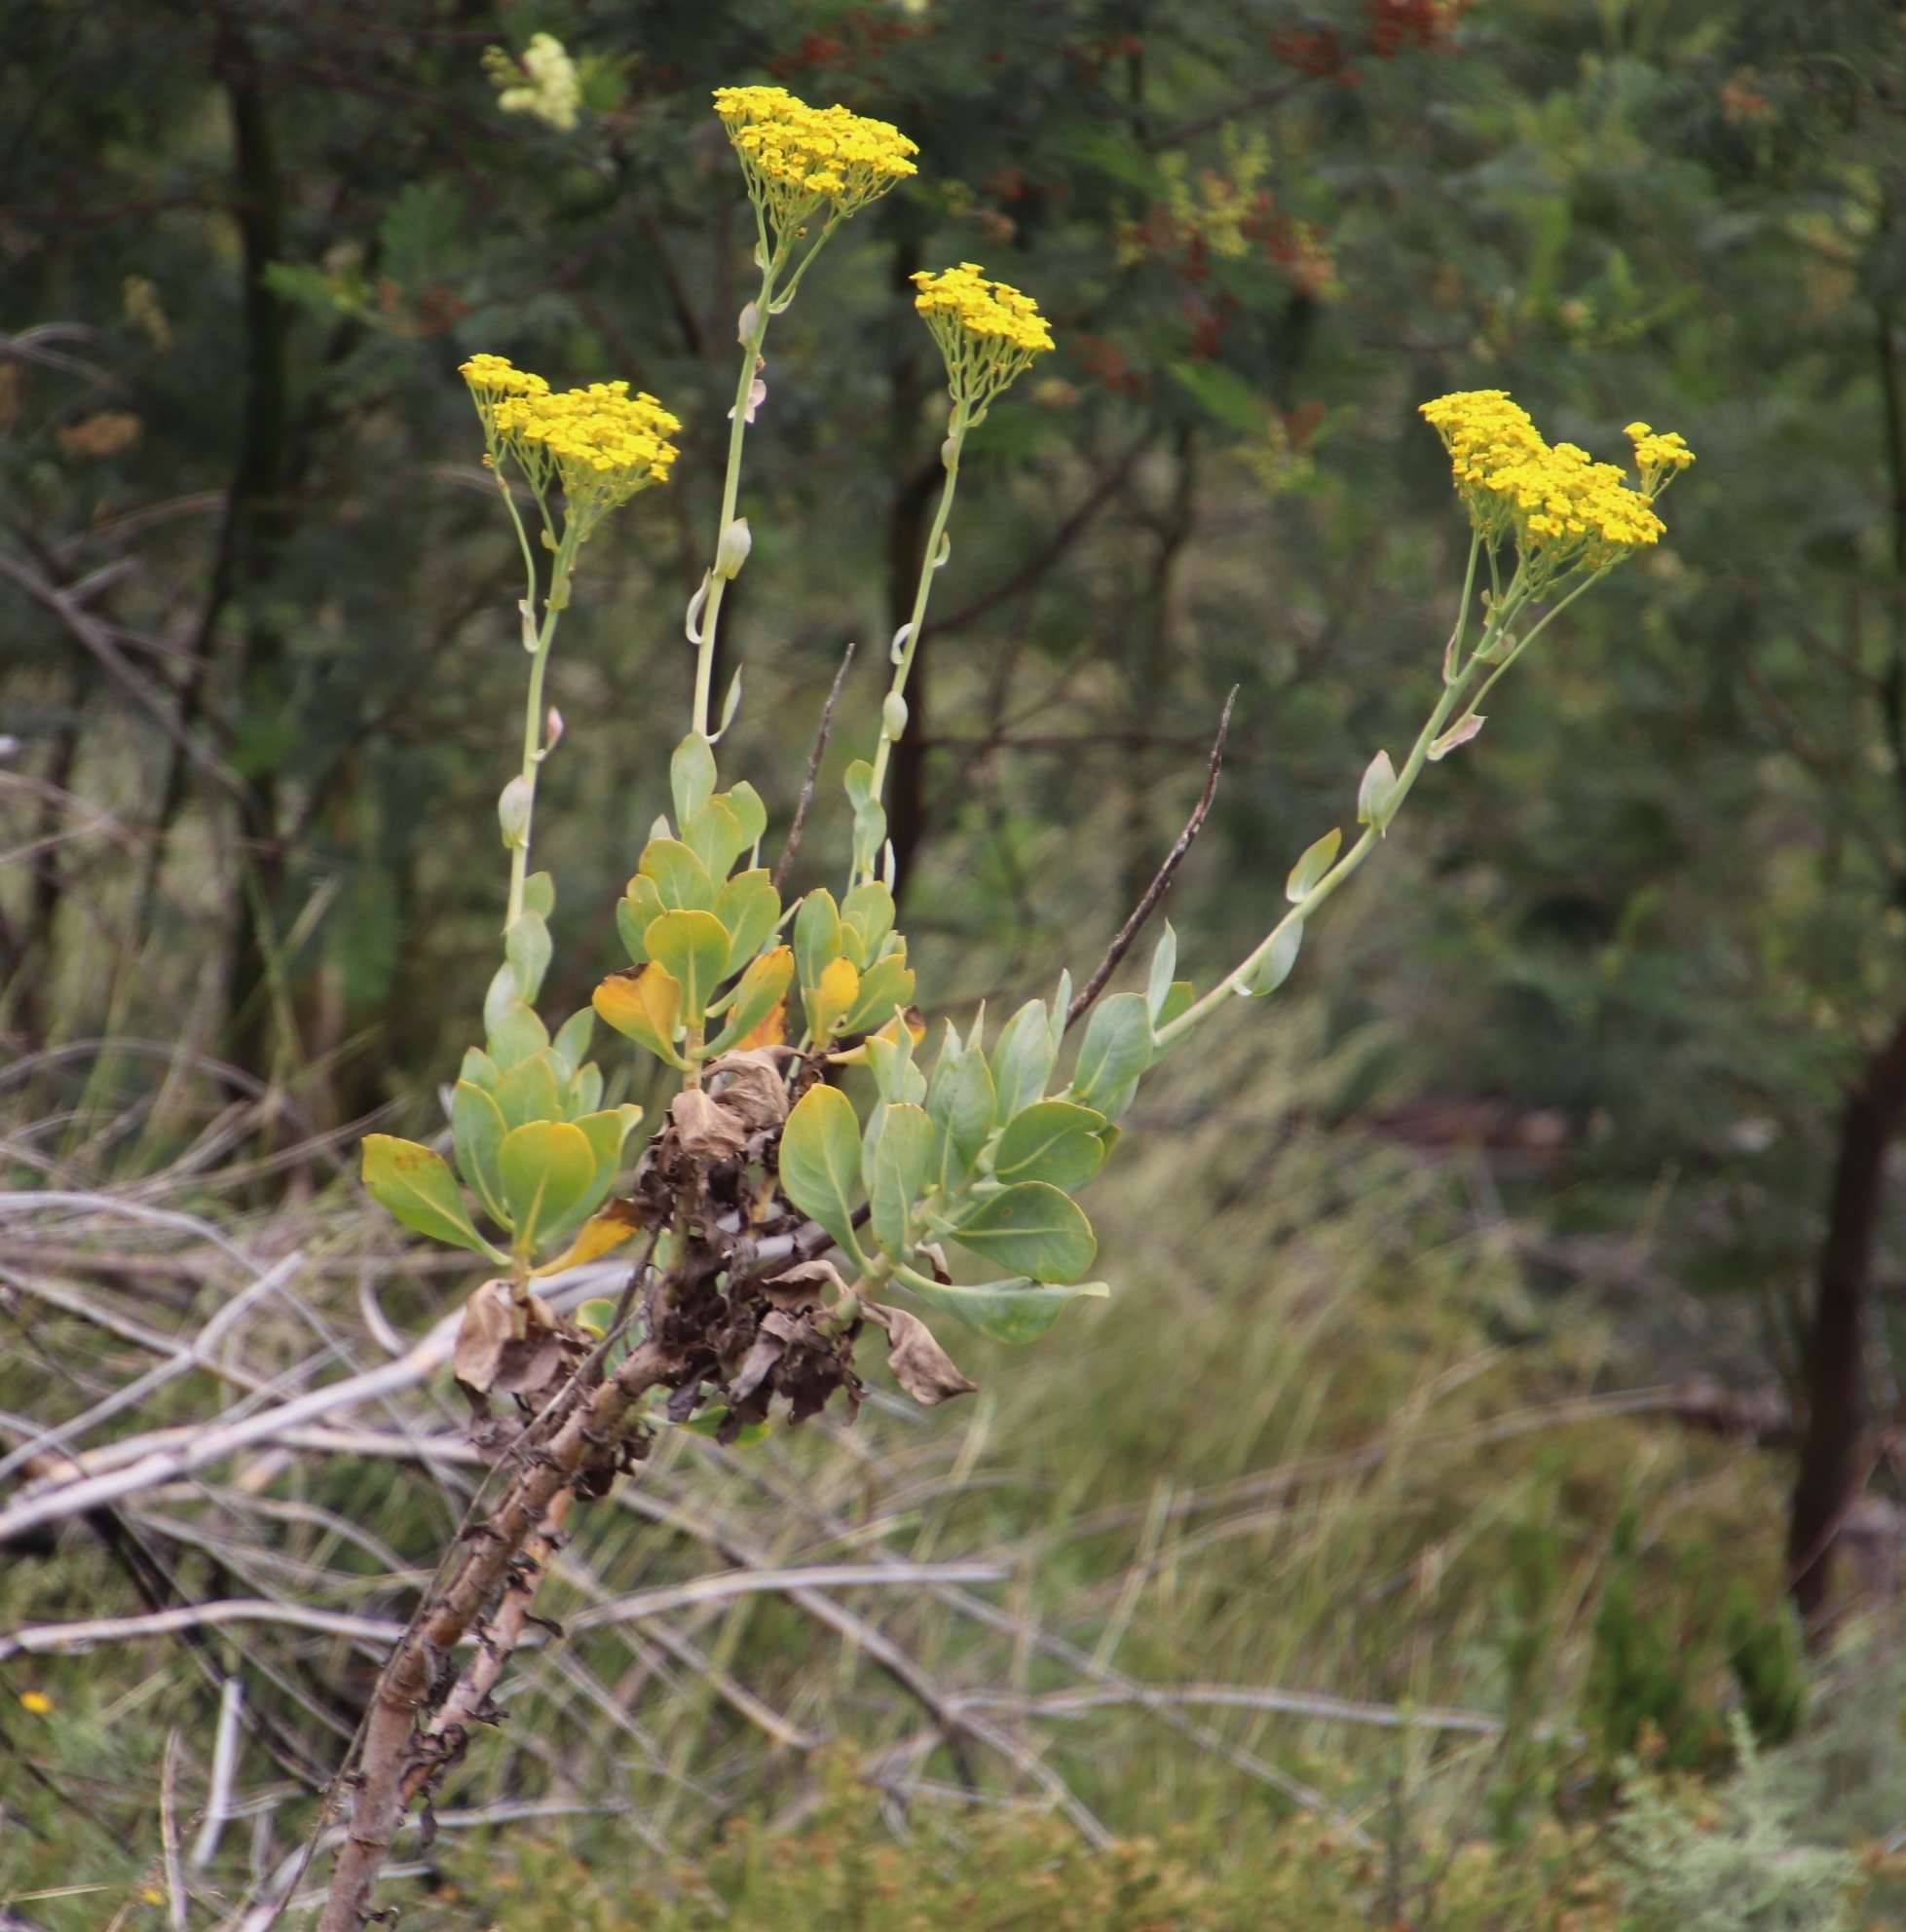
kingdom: Plantae
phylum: Tracheophyta
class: Magnoliopsida
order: Asterales
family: Asteraceae
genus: Othonna
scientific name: Othonna parviflora
